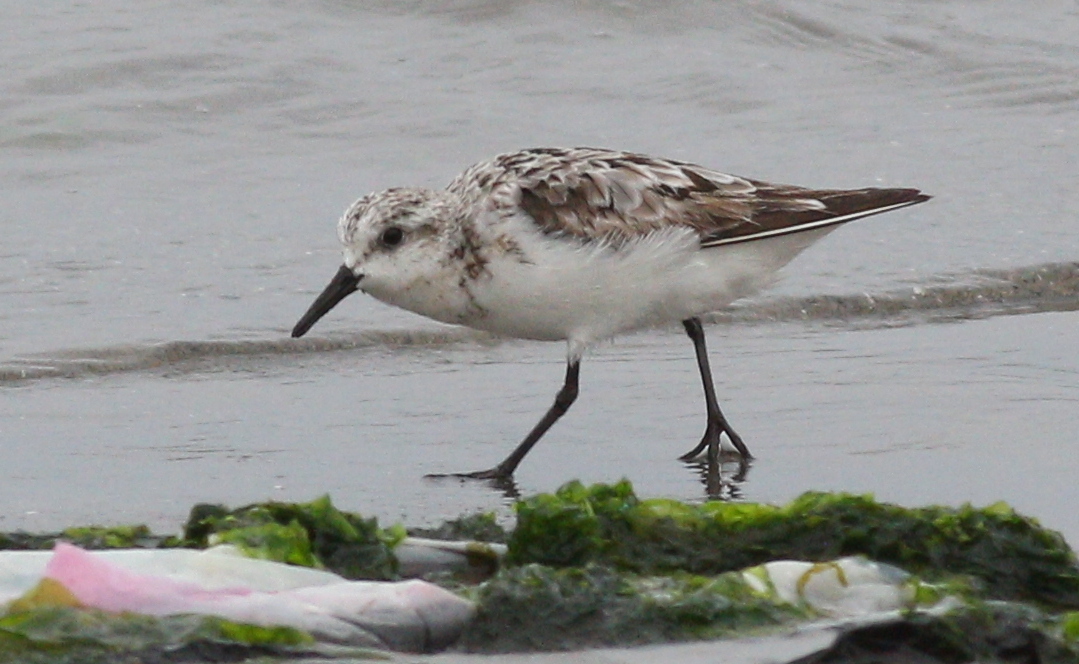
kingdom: Animalia
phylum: Chordata
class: Aves
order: Charadriiformes
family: Scolopacidae
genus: Calidris
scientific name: Calidris alba
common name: Sanderling
